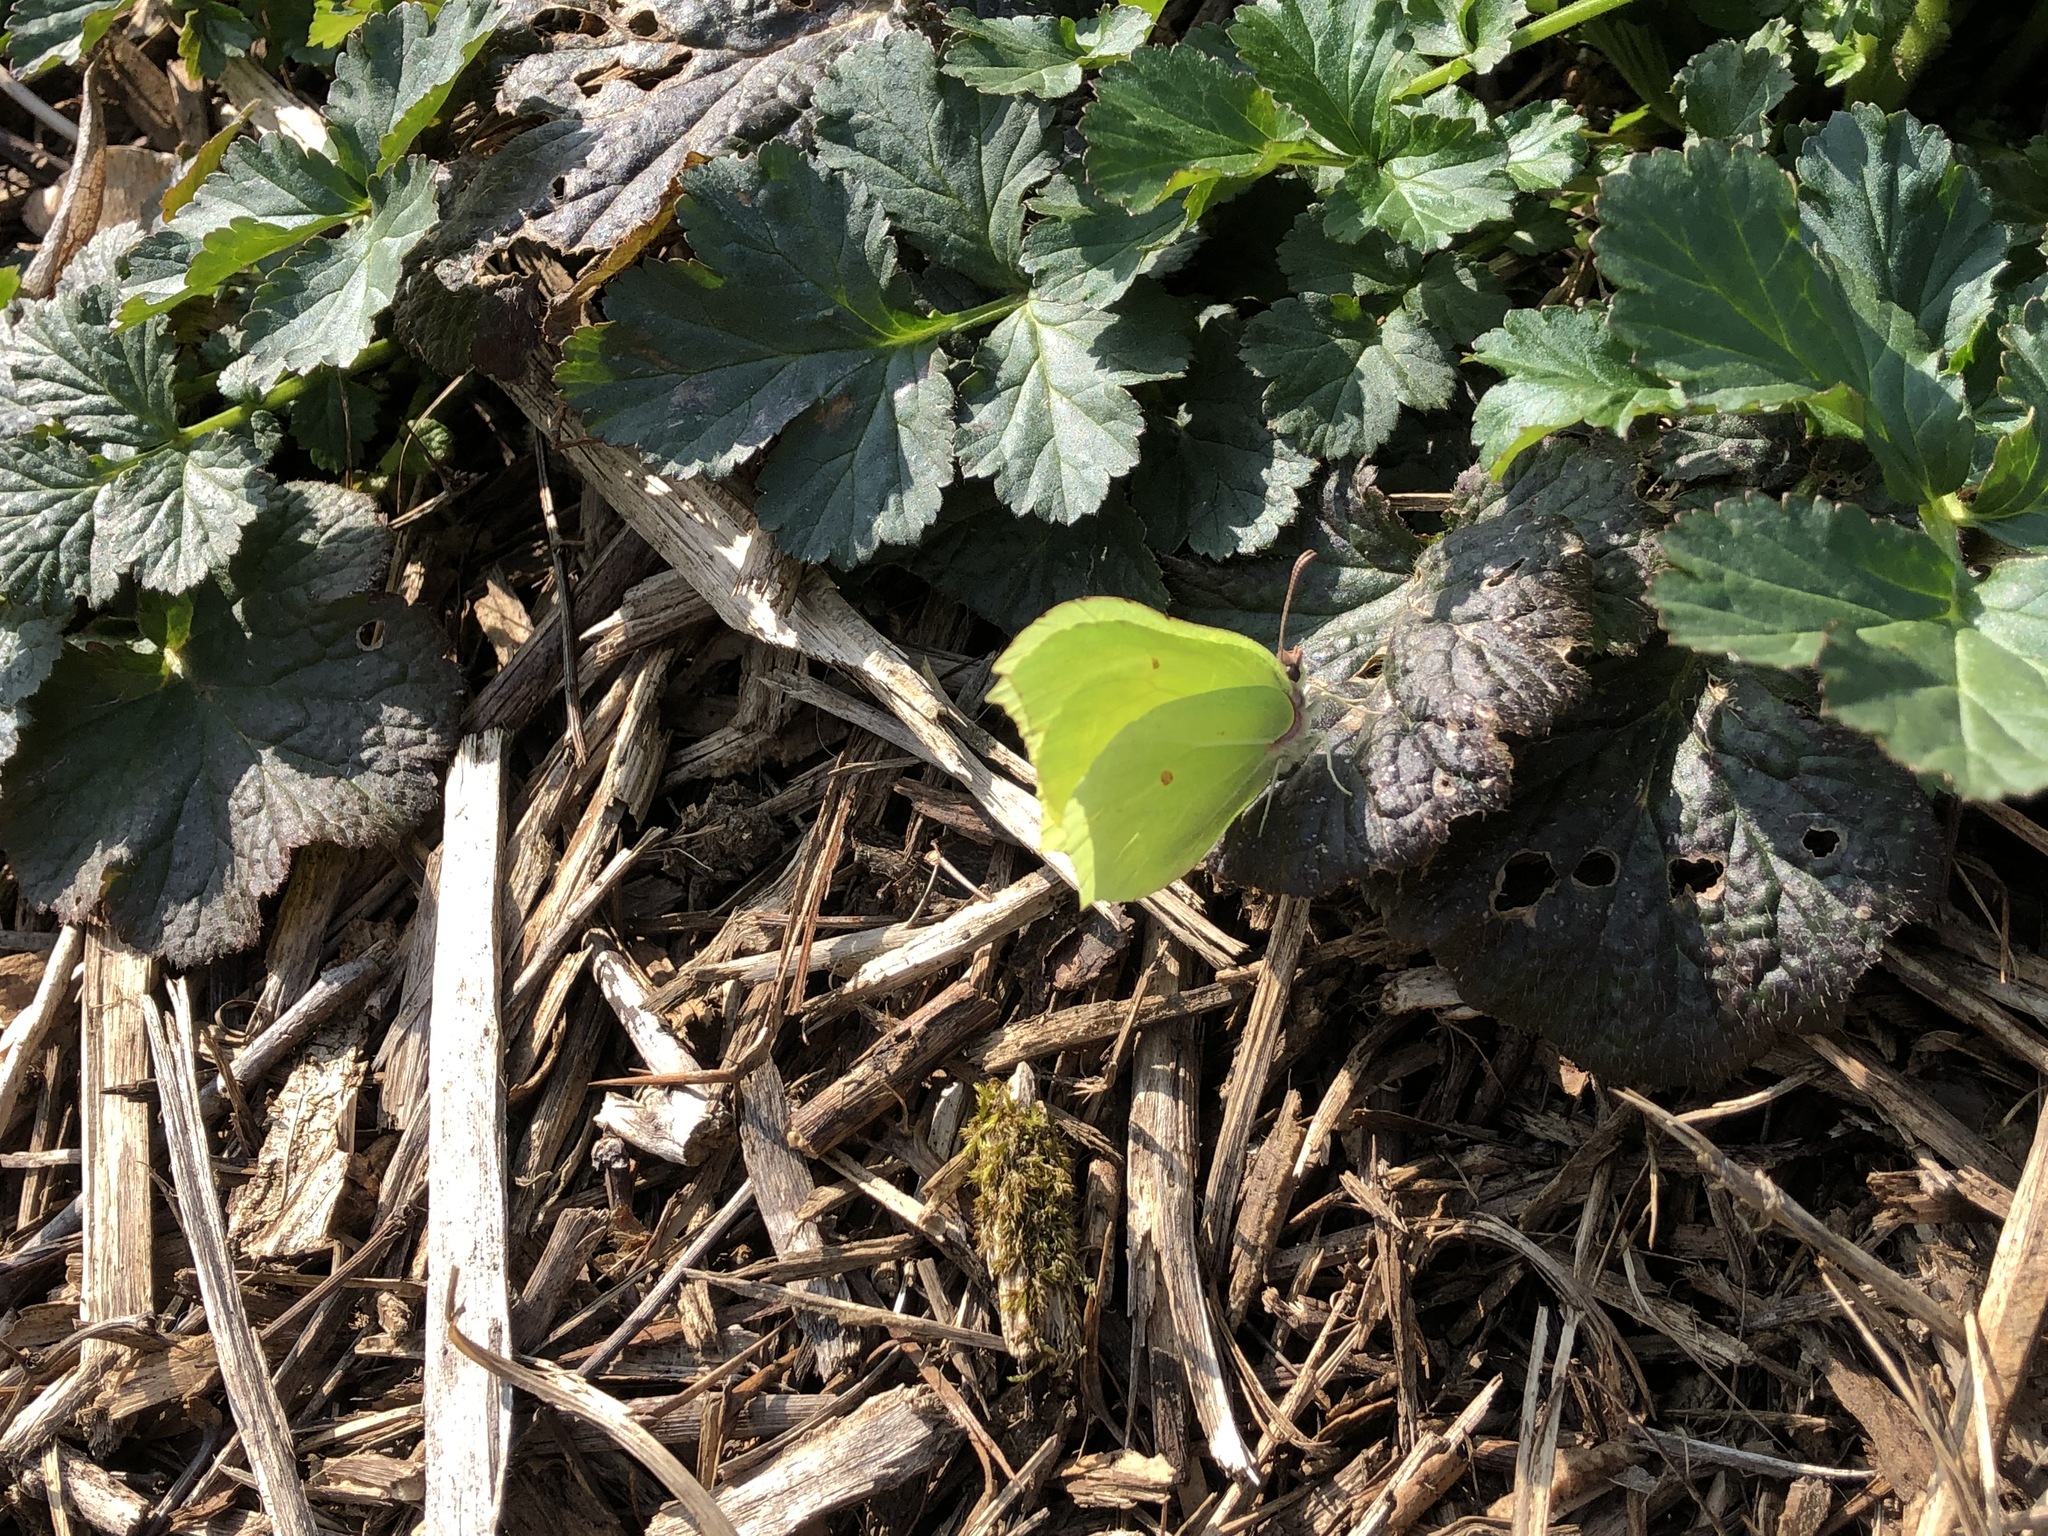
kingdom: Animalia
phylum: Arthropoda
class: Insecta
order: Lepidoptera
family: Pieridae
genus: Gonepteryx
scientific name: Gonepteryx rhamni
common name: Brimstone
